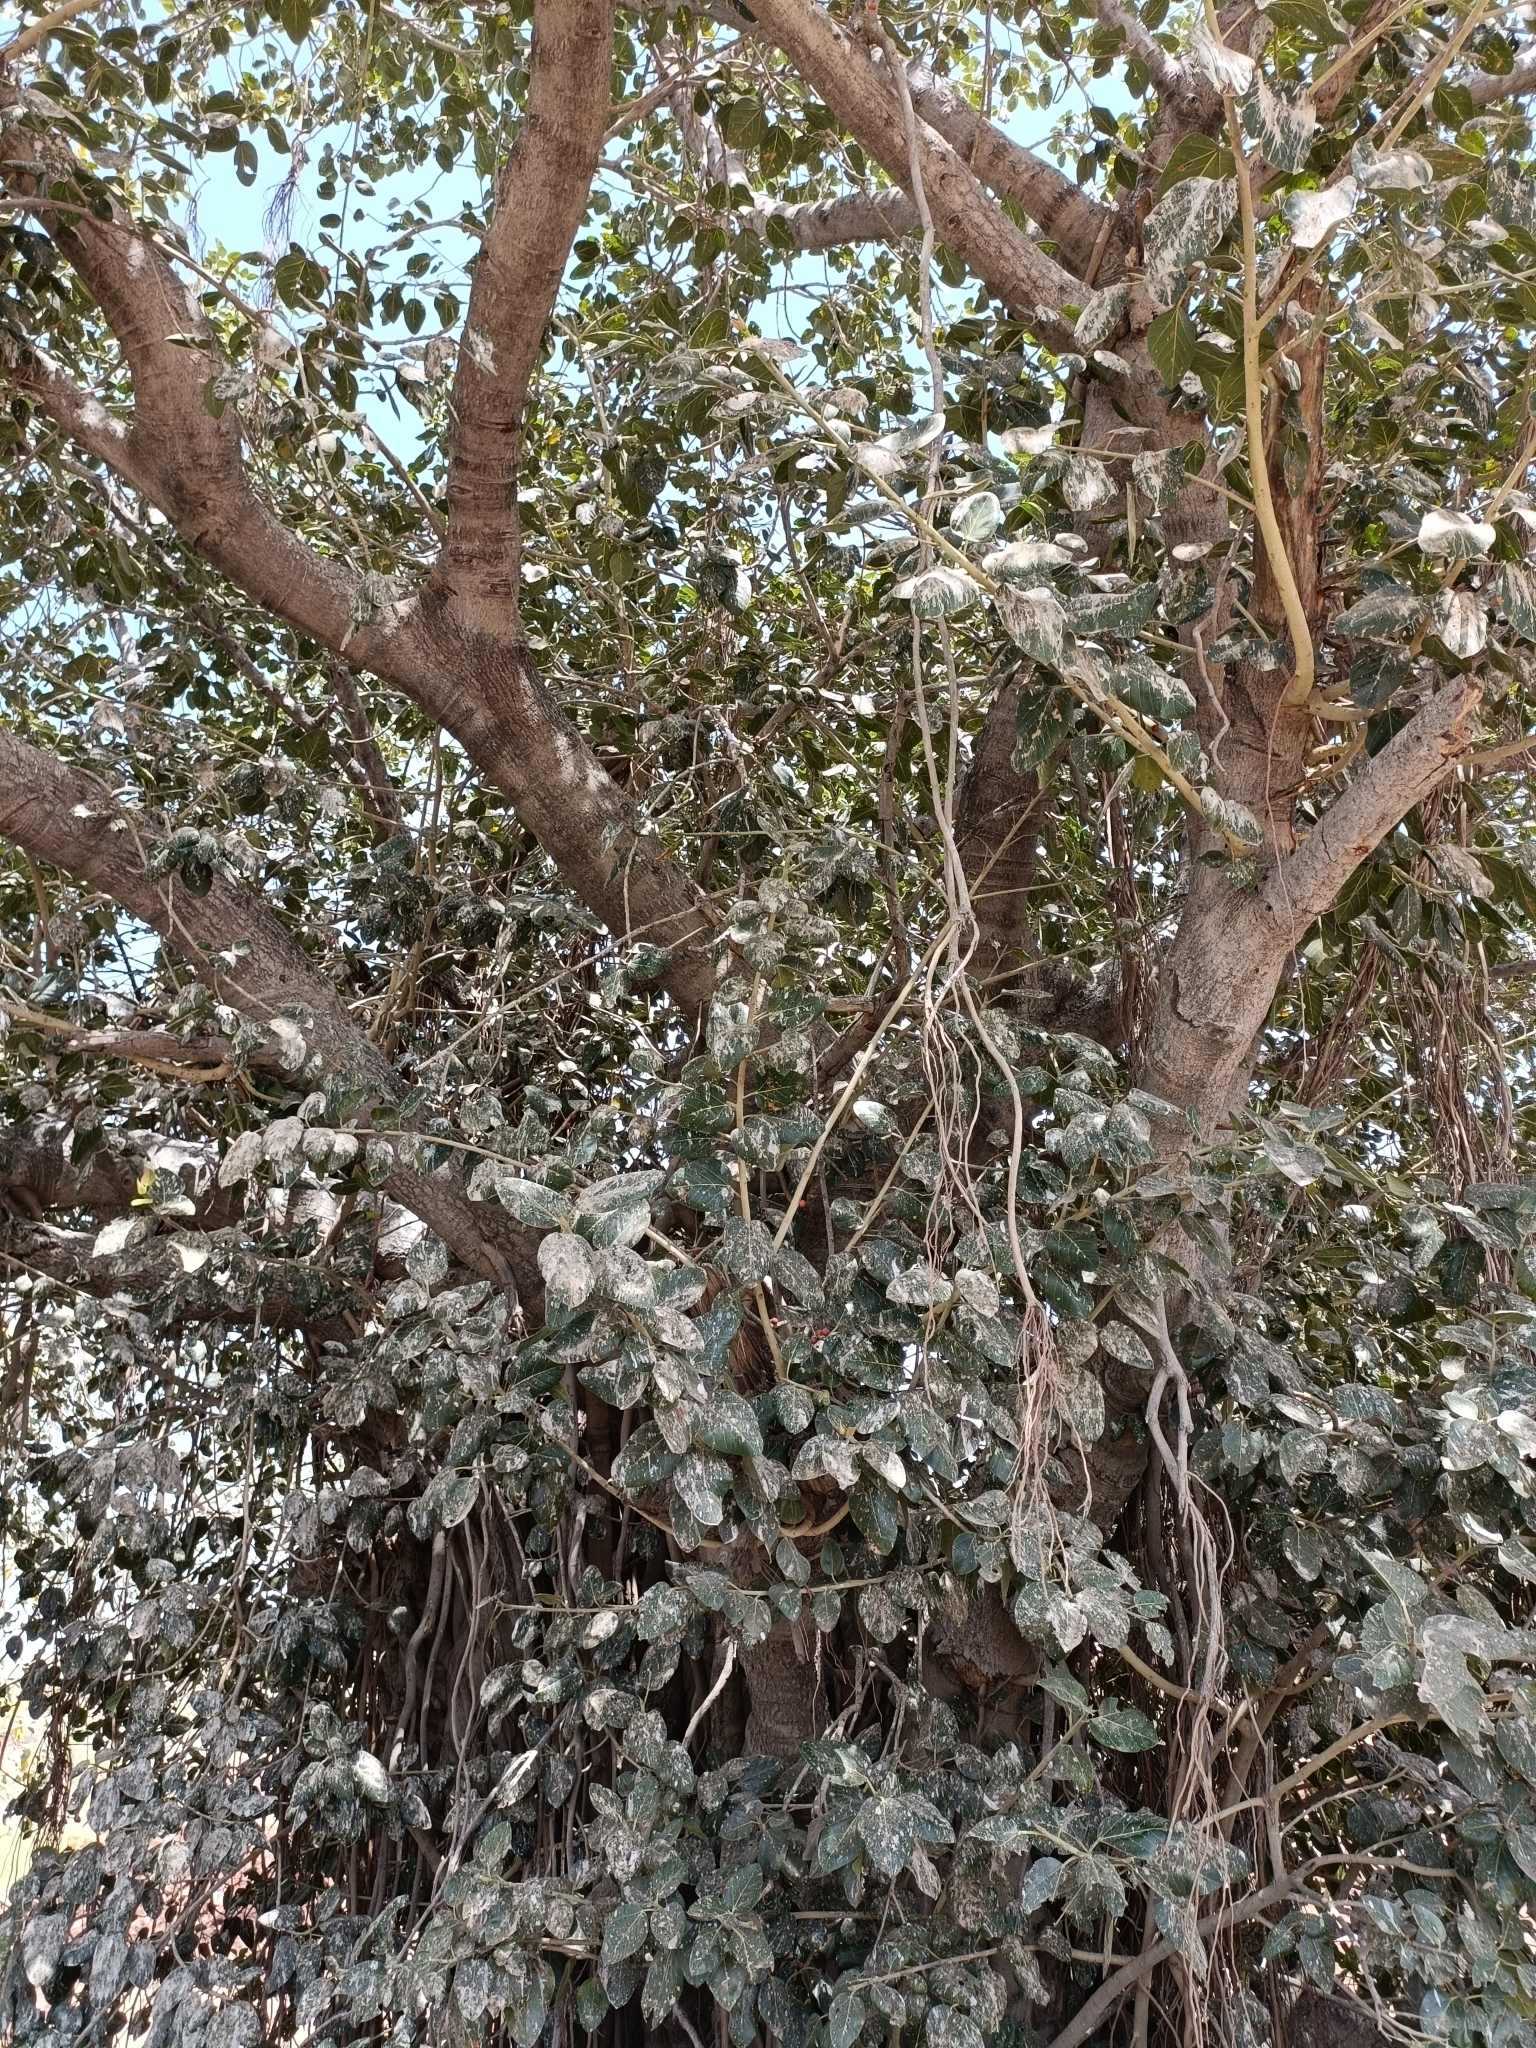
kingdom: Plantae
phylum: Tracheophyta
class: Magnoliopsida
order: Rosales
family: Moraceae
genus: Ficus
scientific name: Ficus benghalensis
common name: Indian banyan
